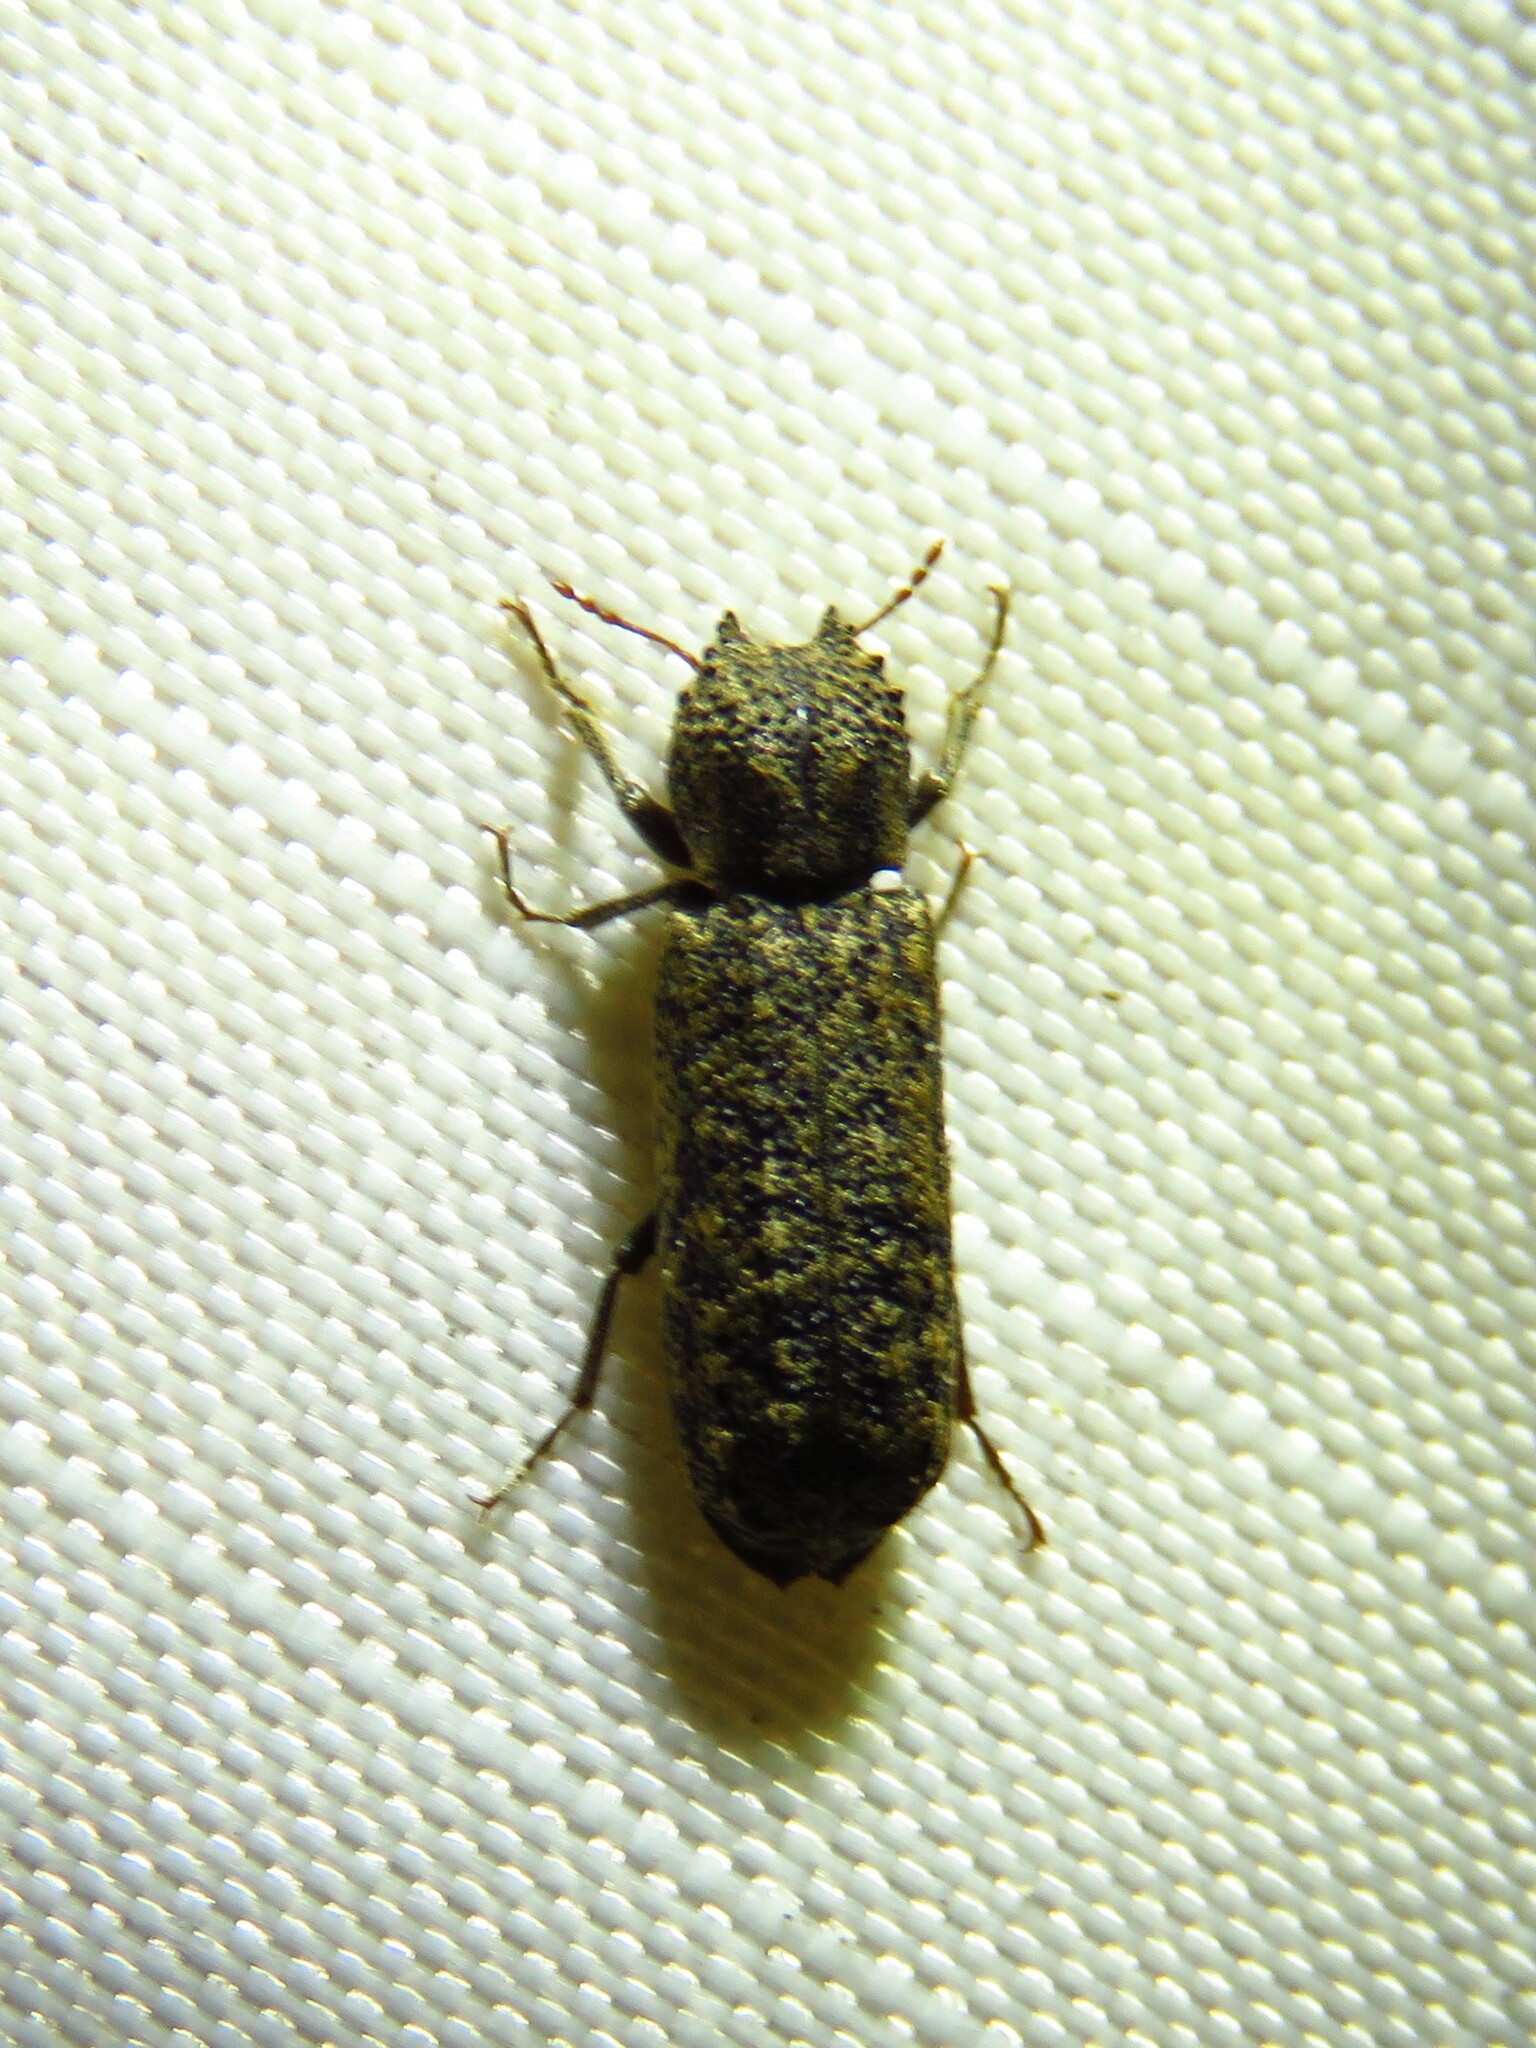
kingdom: Animalia
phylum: Arthropoda
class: Insecta
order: Coleoptera
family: Bostrichidae
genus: Lichenophanes
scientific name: Lichenophanes bicornis
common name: Two-horned powder-post beetle
